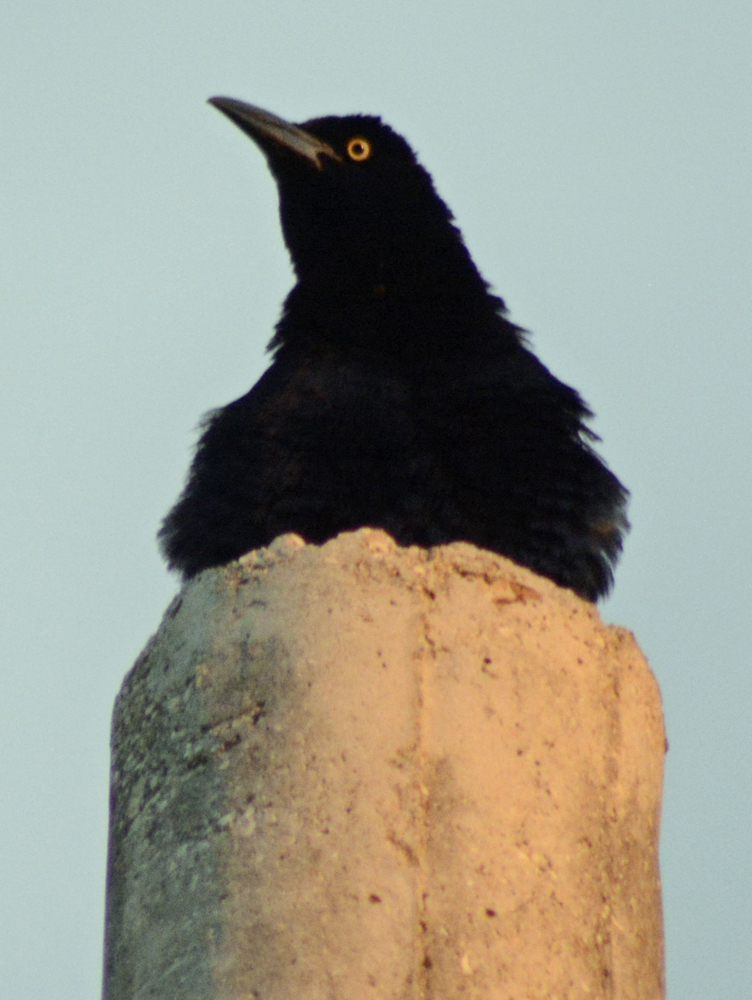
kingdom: Animalia
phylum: Chordata
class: Aves
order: Passeriformes
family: Icteridae
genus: Quiscalus
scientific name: Quiscalus mexicanus
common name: Great-tailed grackle
